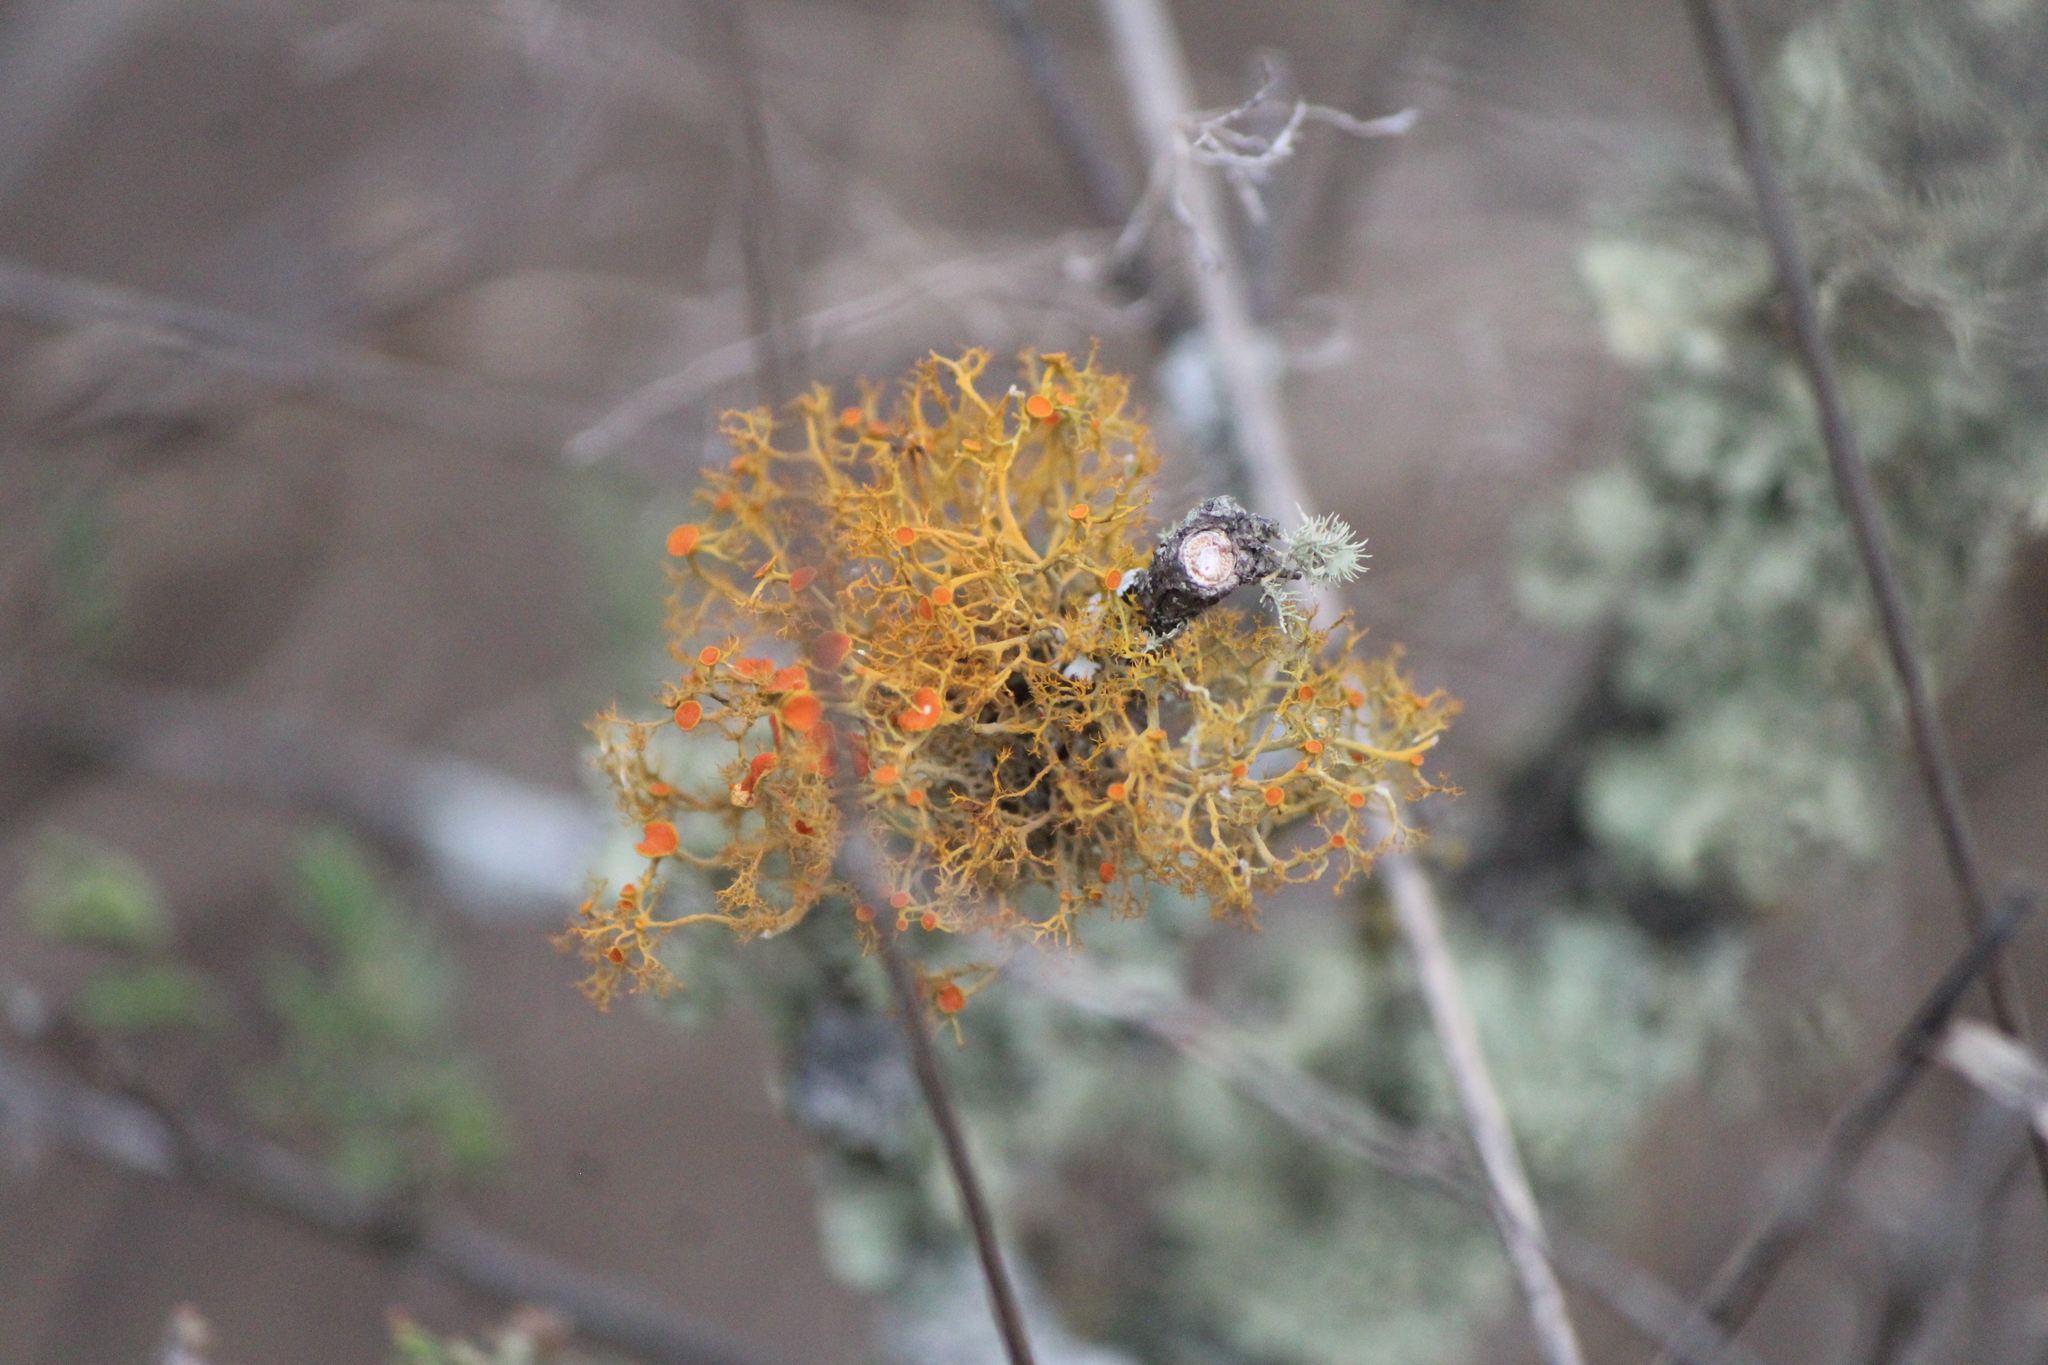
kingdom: Fungi
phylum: Ascomycota
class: Lecanoromycetes
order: Teloschistales
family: Teloschistaceae
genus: Teloschistes
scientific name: Teloschistes exilis
